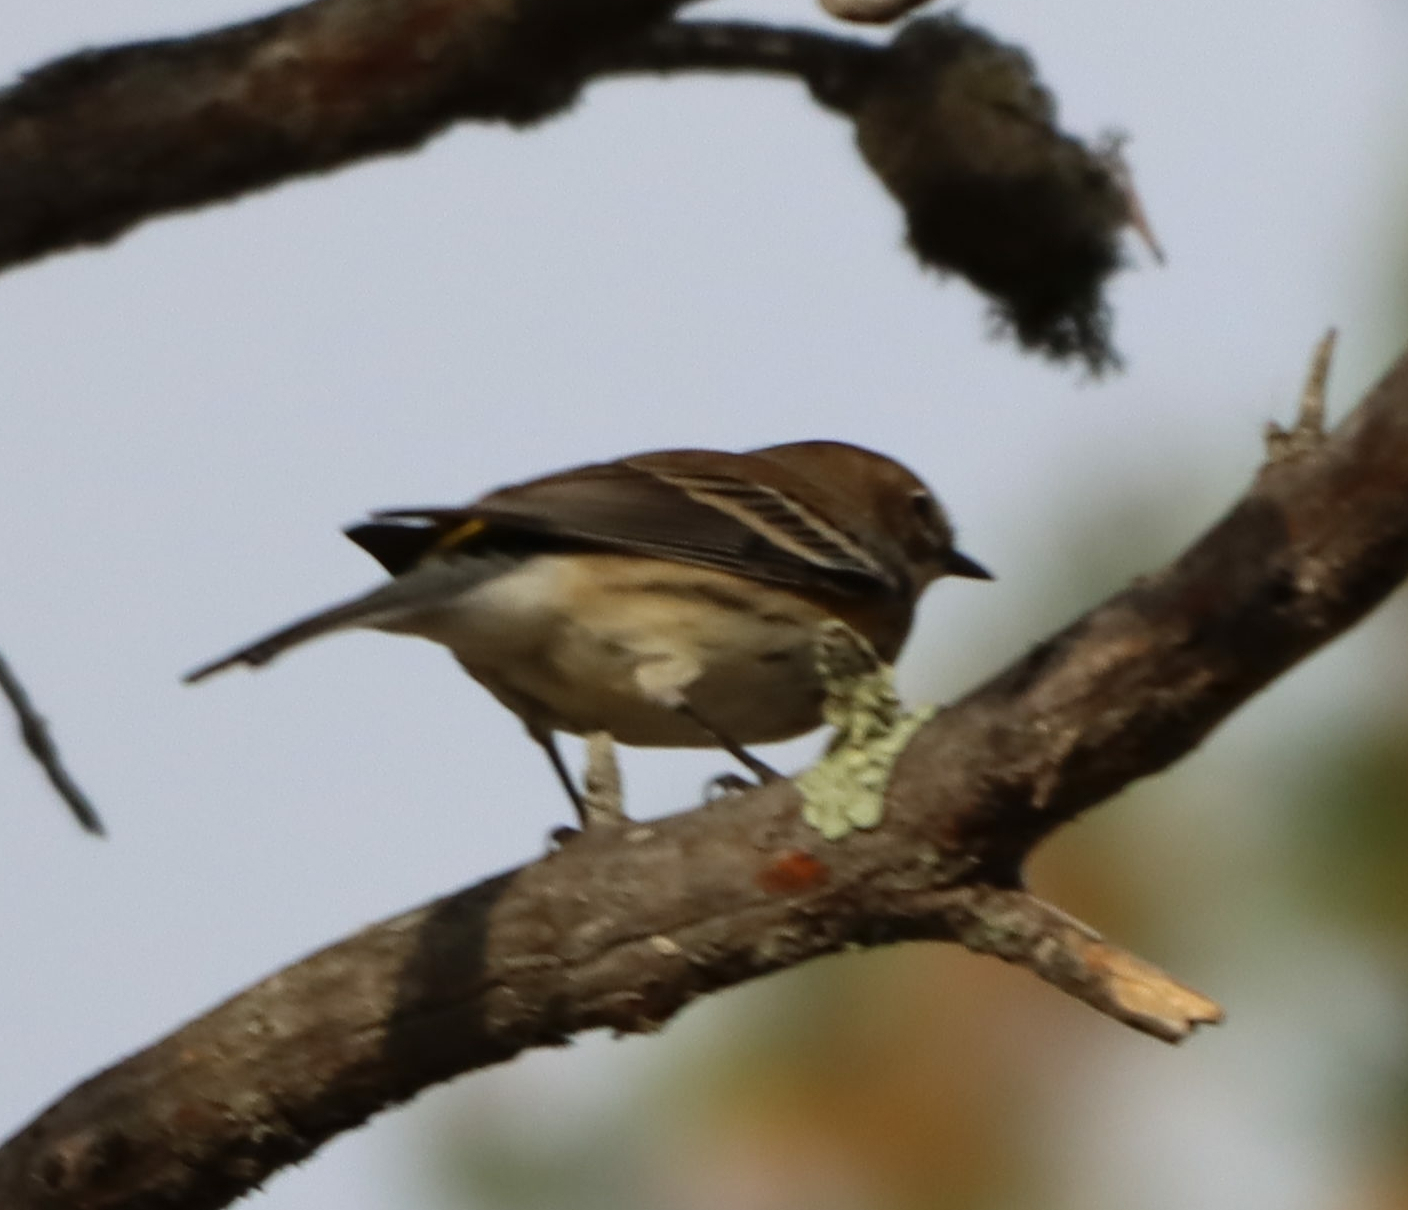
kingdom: Animalia
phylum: Chordata
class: Aves
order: Passeriformes
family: Parulidae
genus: Setophaga
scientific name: Setophaga coronata
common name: Myrtle warbler
